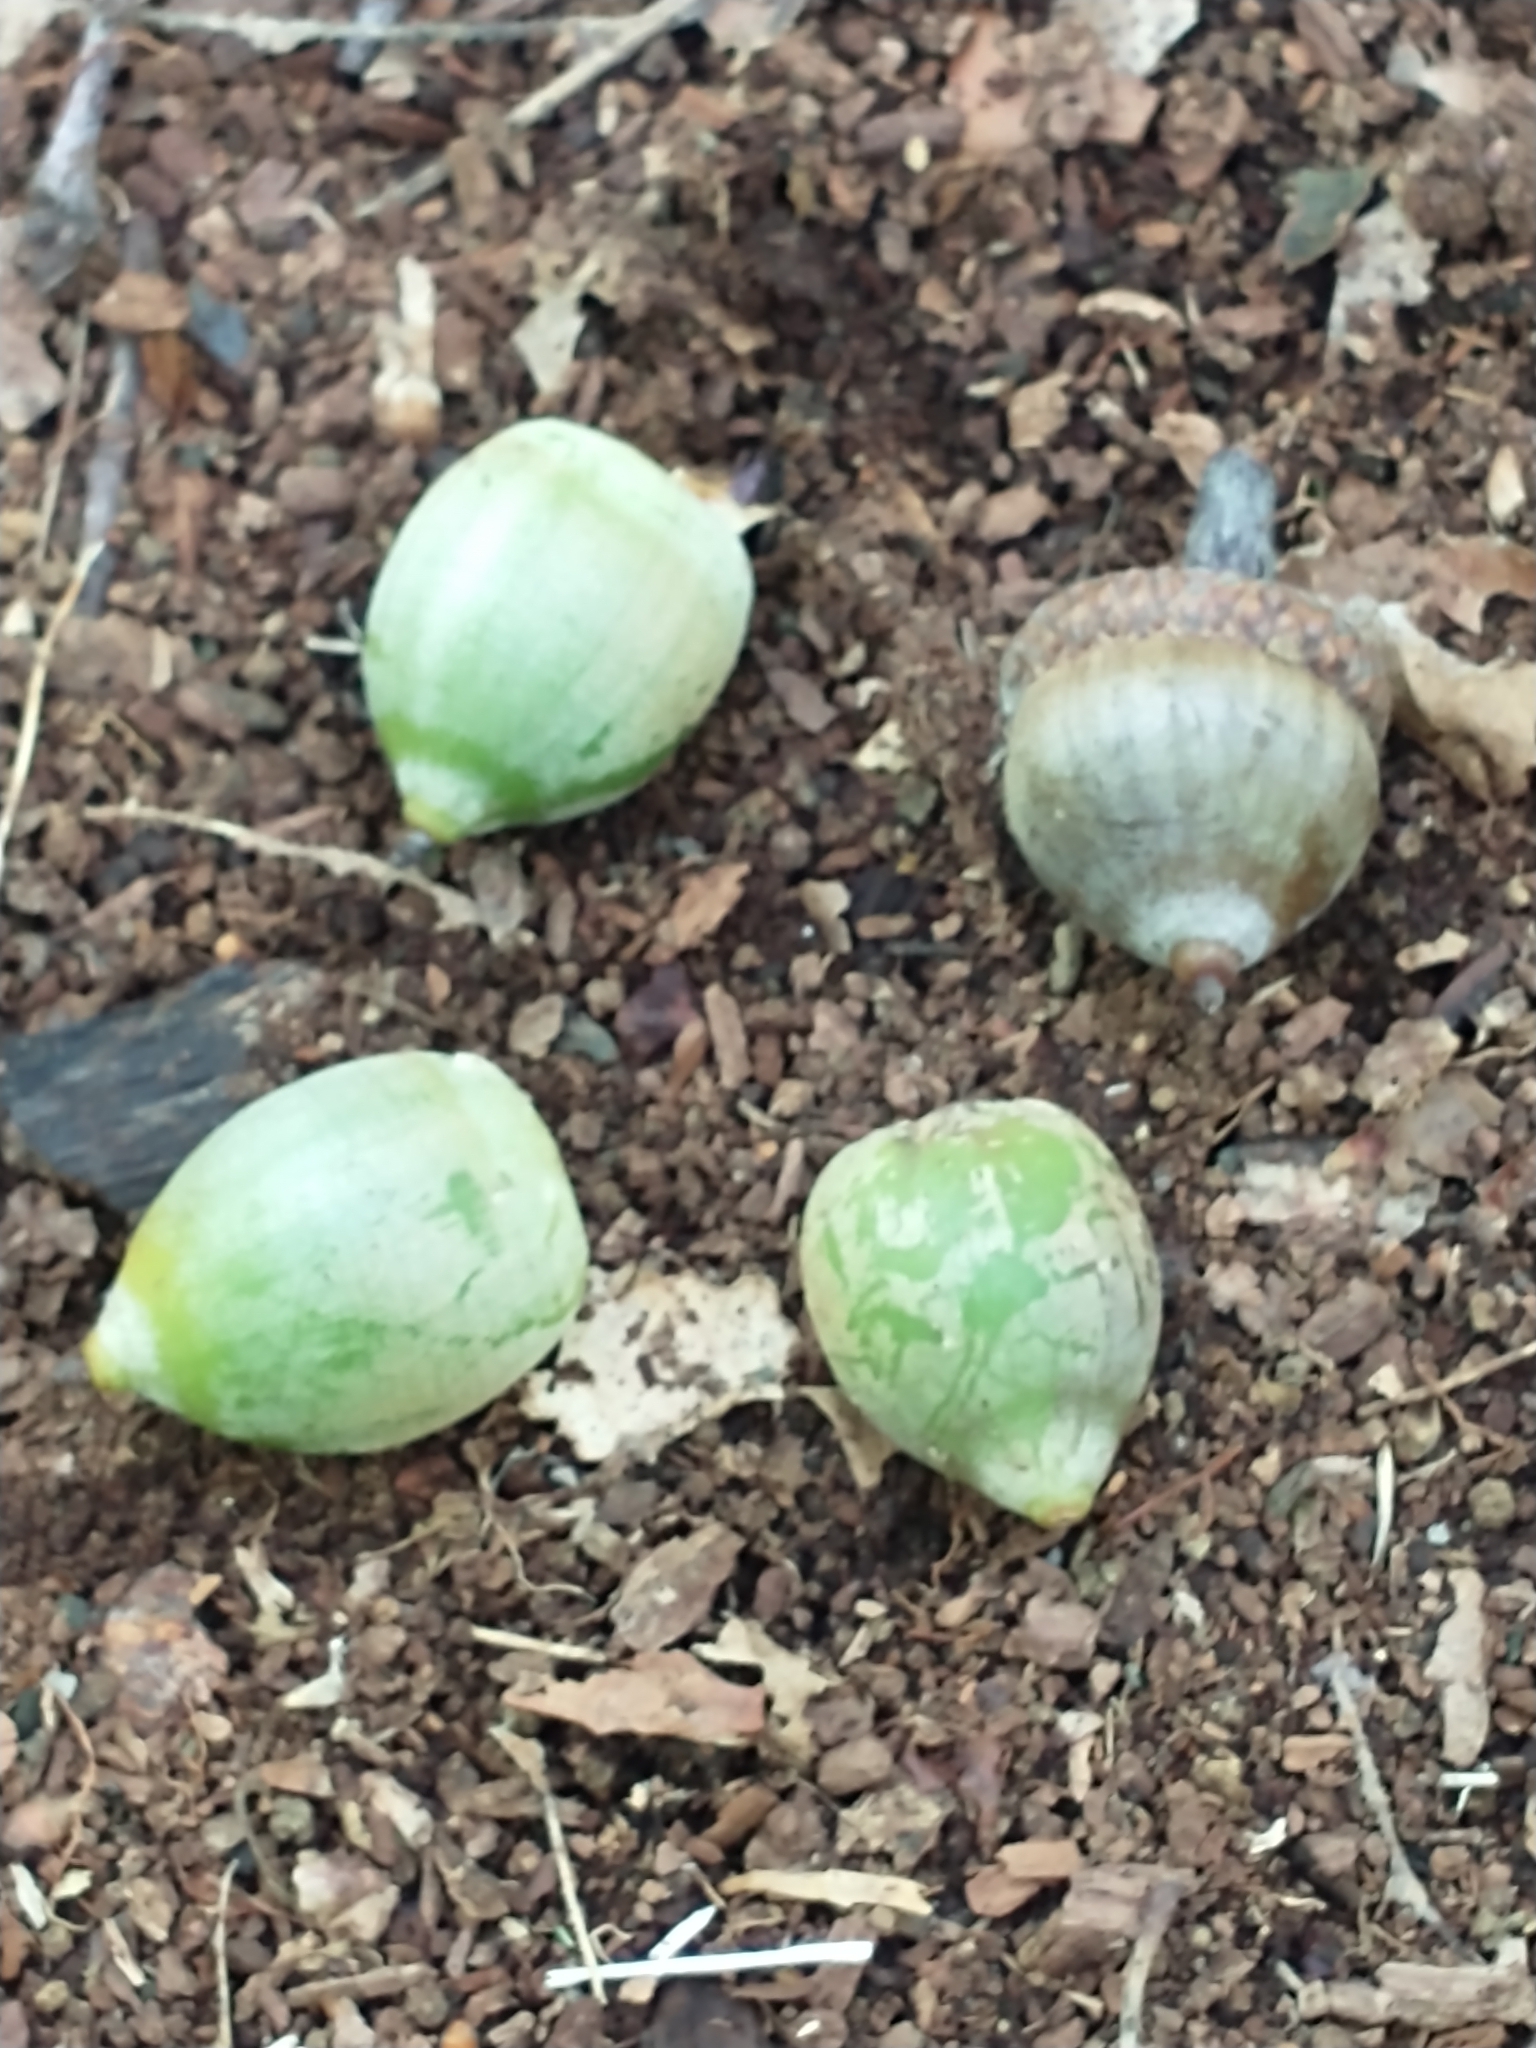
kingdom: Plantae
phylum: Tracheophyta
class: Magnoliopsida
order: Fagales
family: Fagaceae
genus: Quercus
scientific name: Quercus rubra
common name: Red oak
